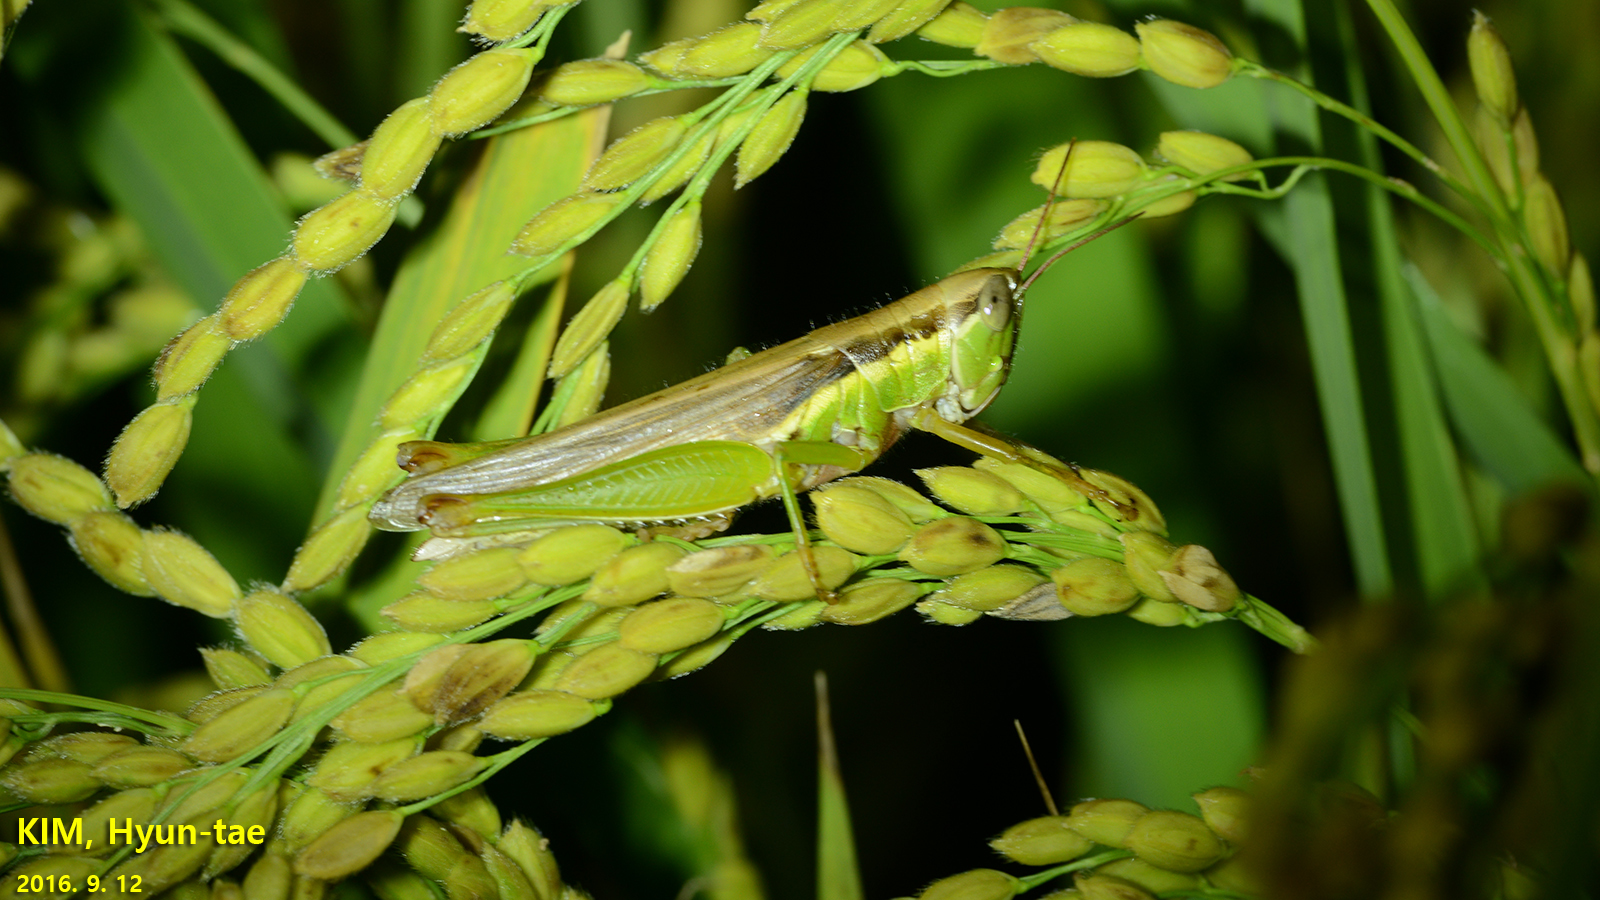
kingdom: Animalia
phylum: Arthropoda
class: Insecta
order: Orthoptera
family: Acrididae
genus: Oxya
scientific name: Oxya chinensis
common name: Small rice grasshopper
